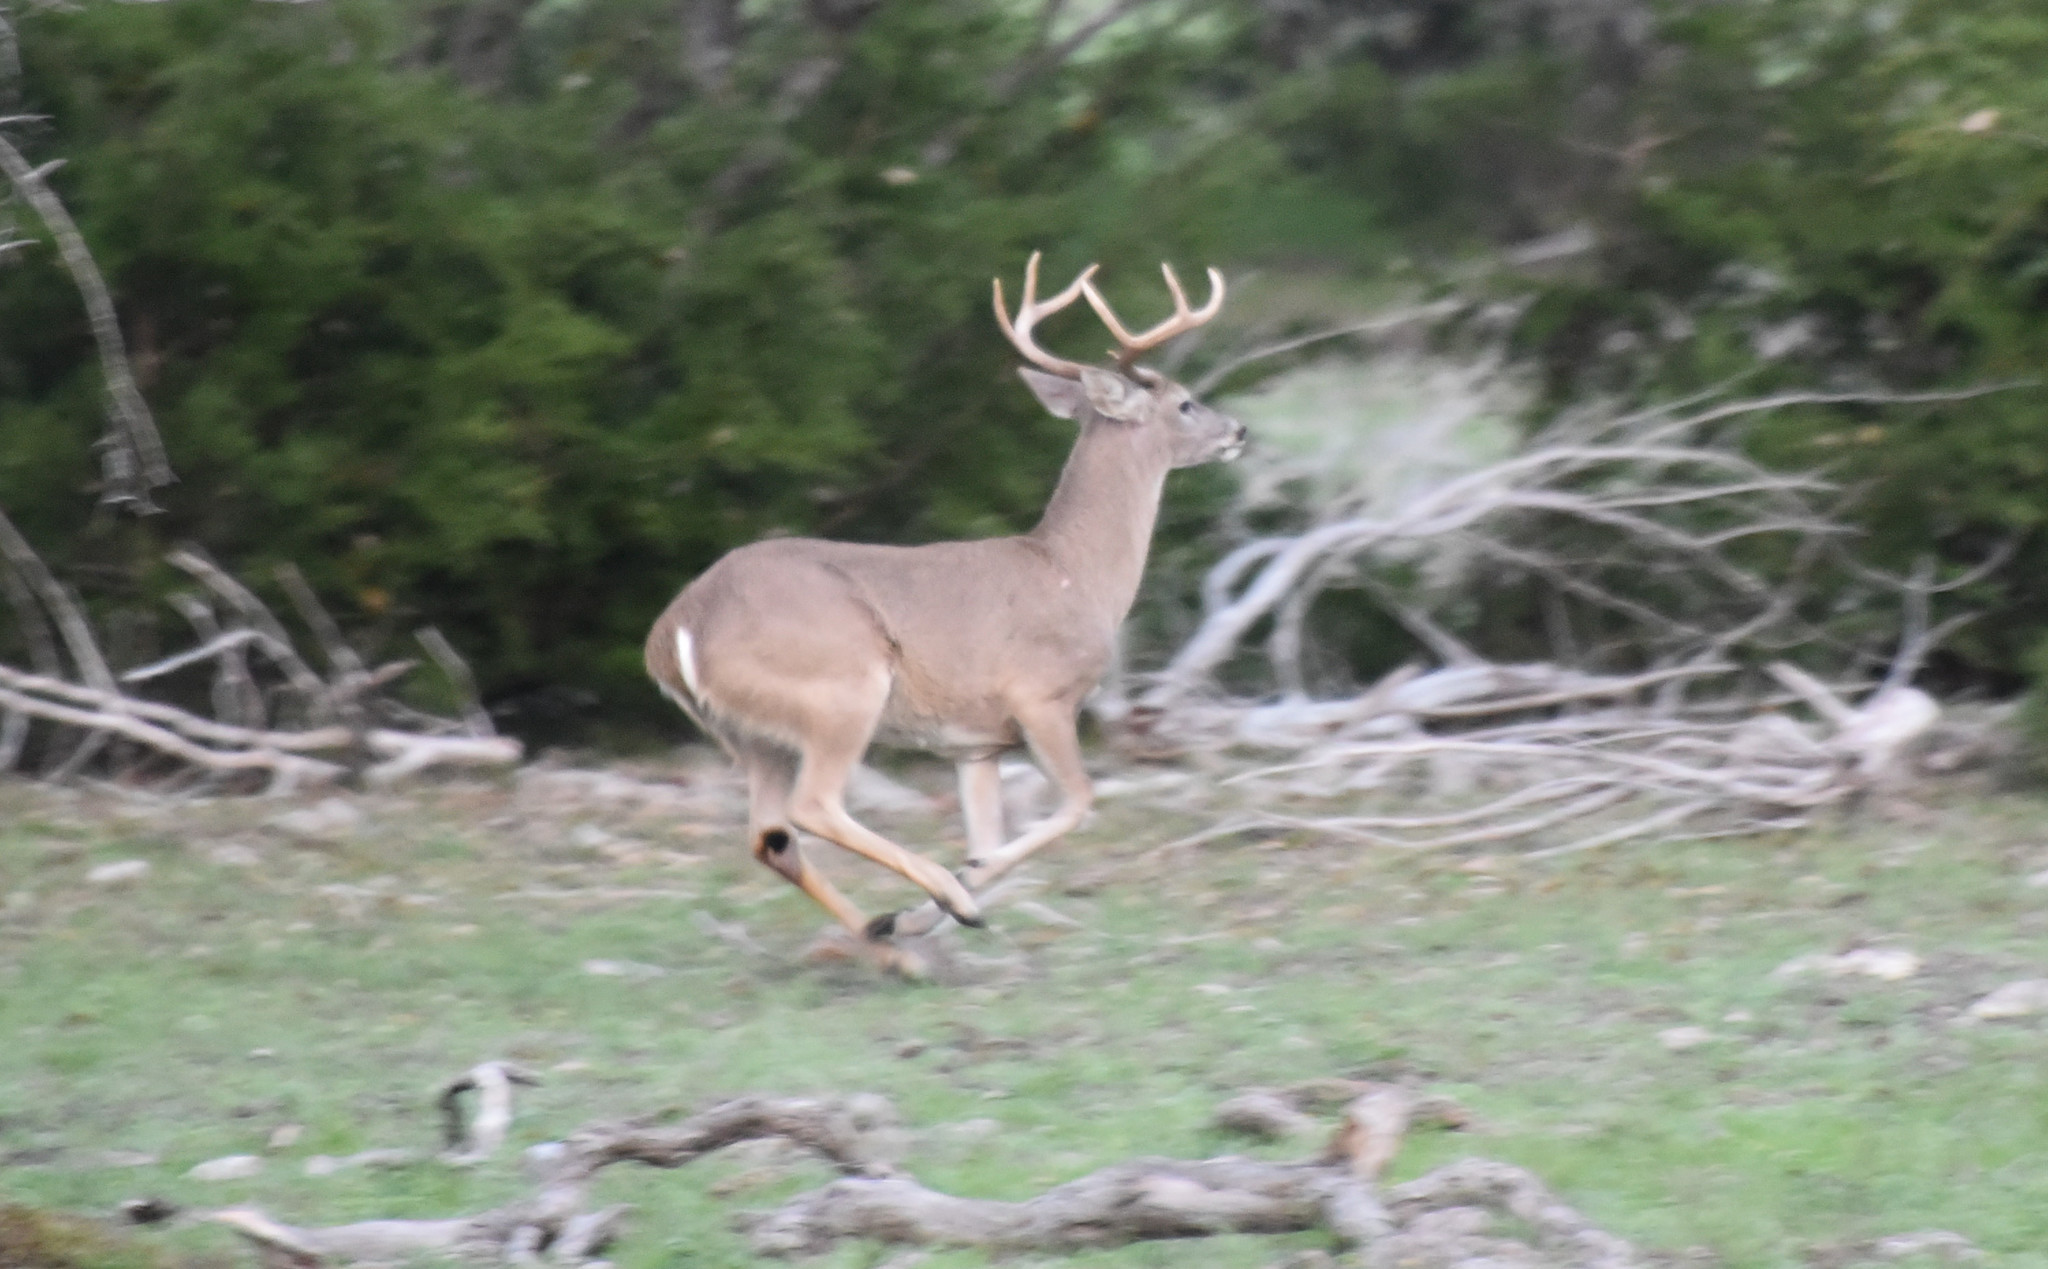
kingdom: Animalia
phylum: Chordata
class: Mammalia
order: Artiodactyla
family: Cervidae
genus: Odocoileus
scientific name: Odocoileus virginianus
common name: White-tailed deer
